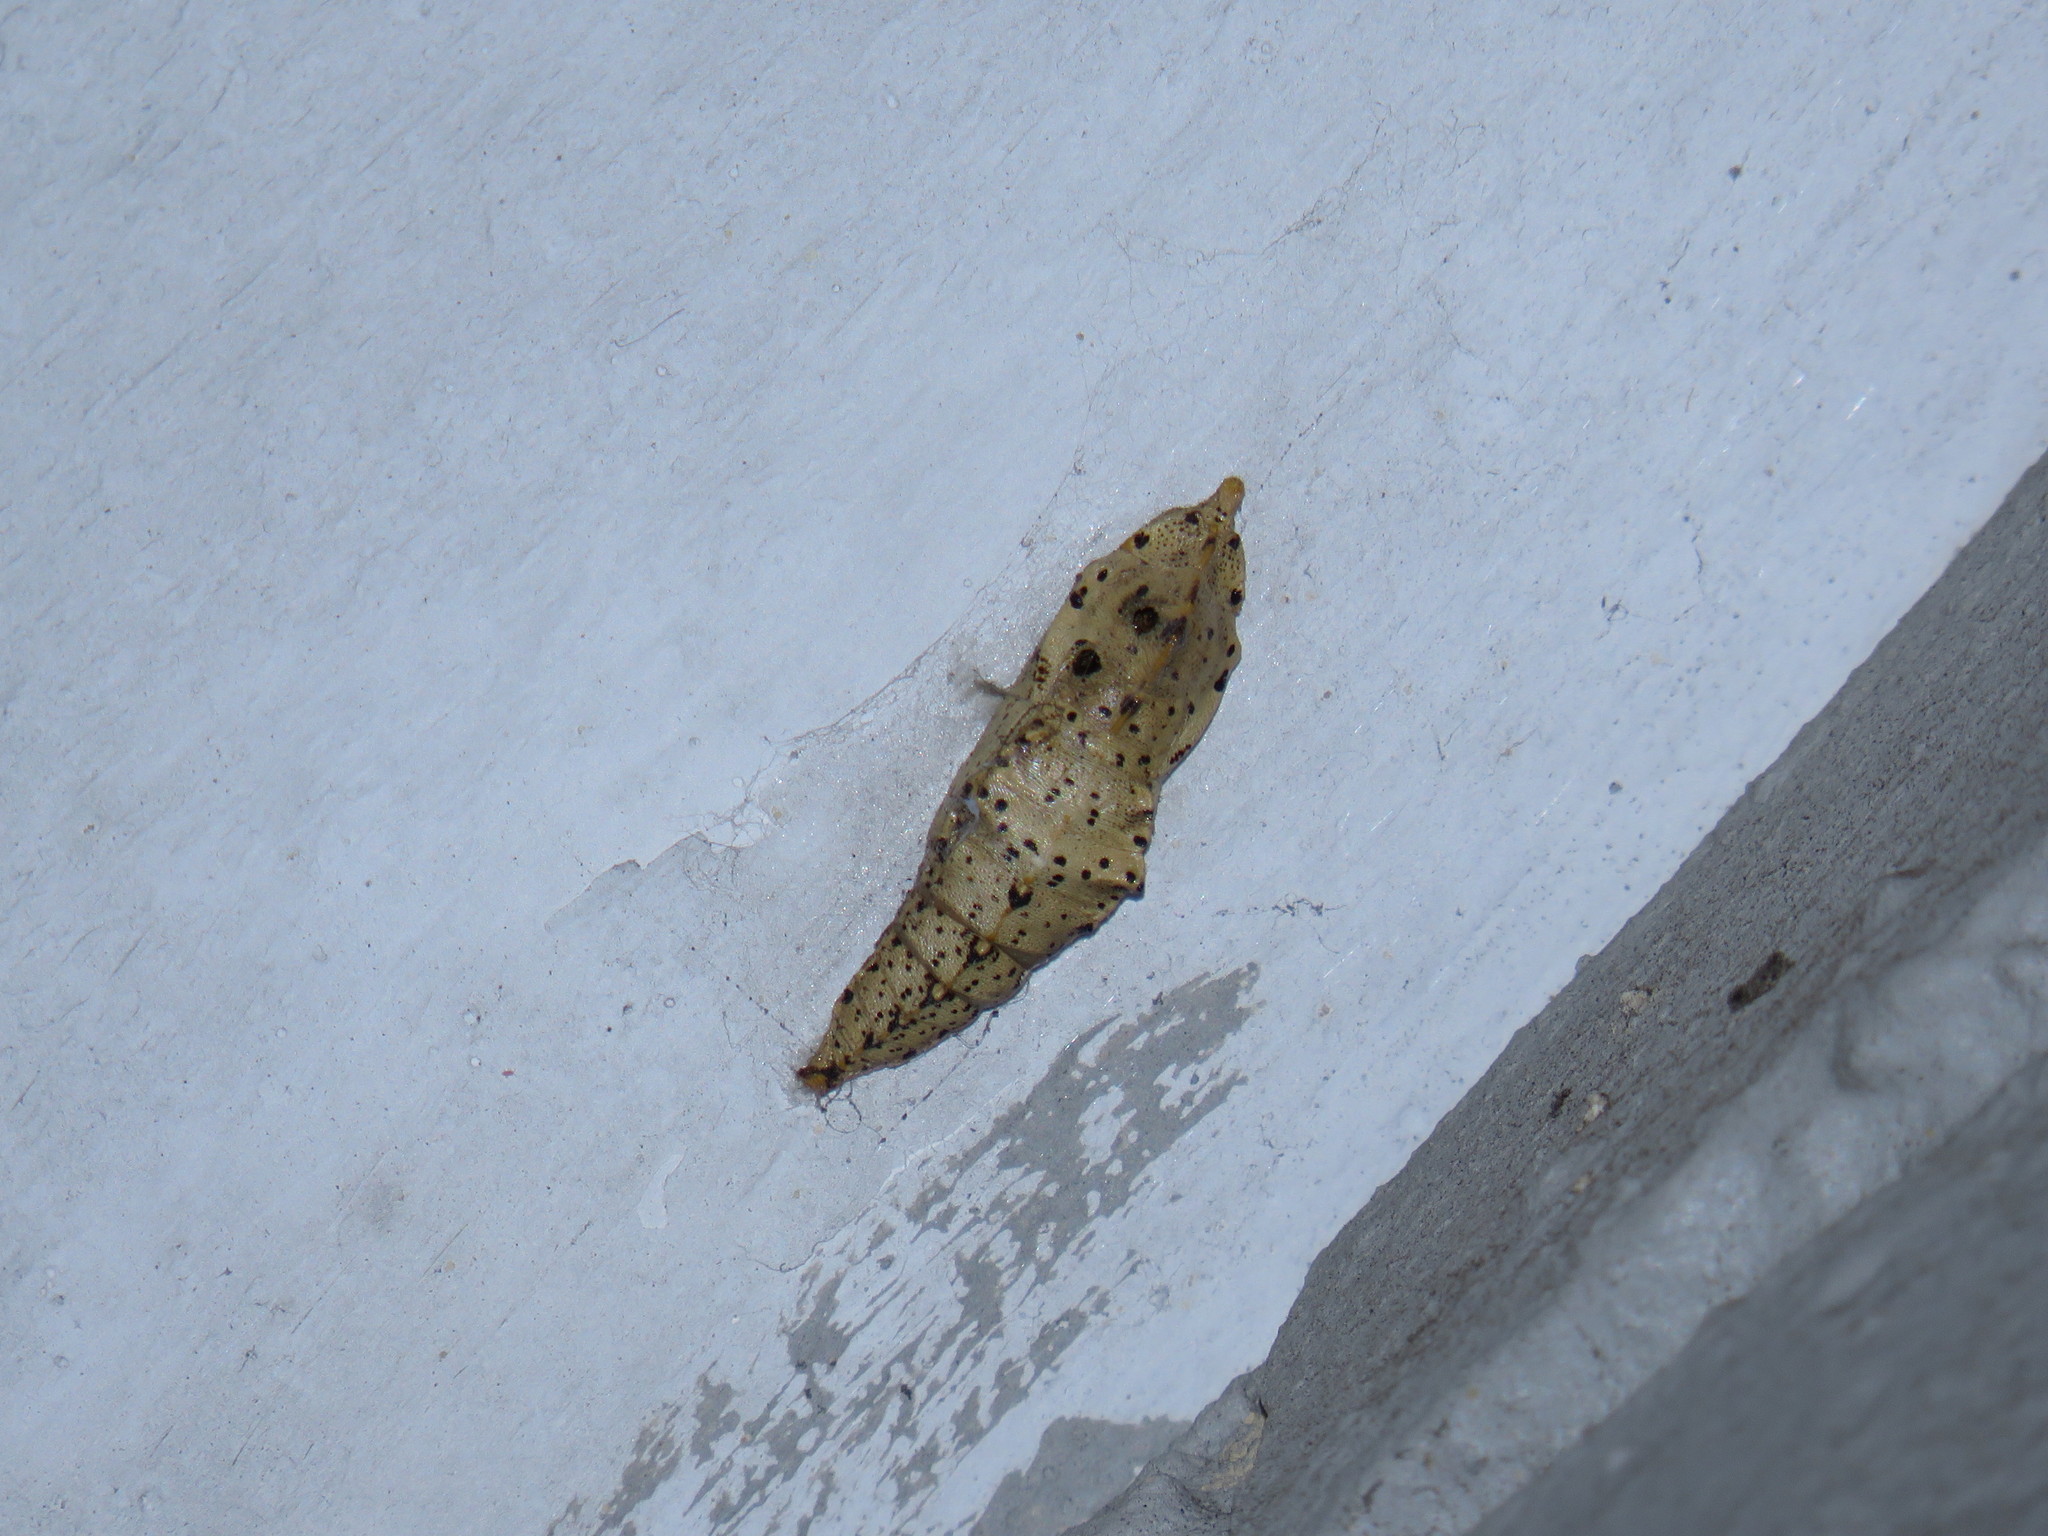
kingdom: Animalia
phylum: Arthropoda
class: Insecta
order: Lepidoptera
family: Pieridae
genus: Pieris
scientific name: Pieris brassicae
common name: Large white
